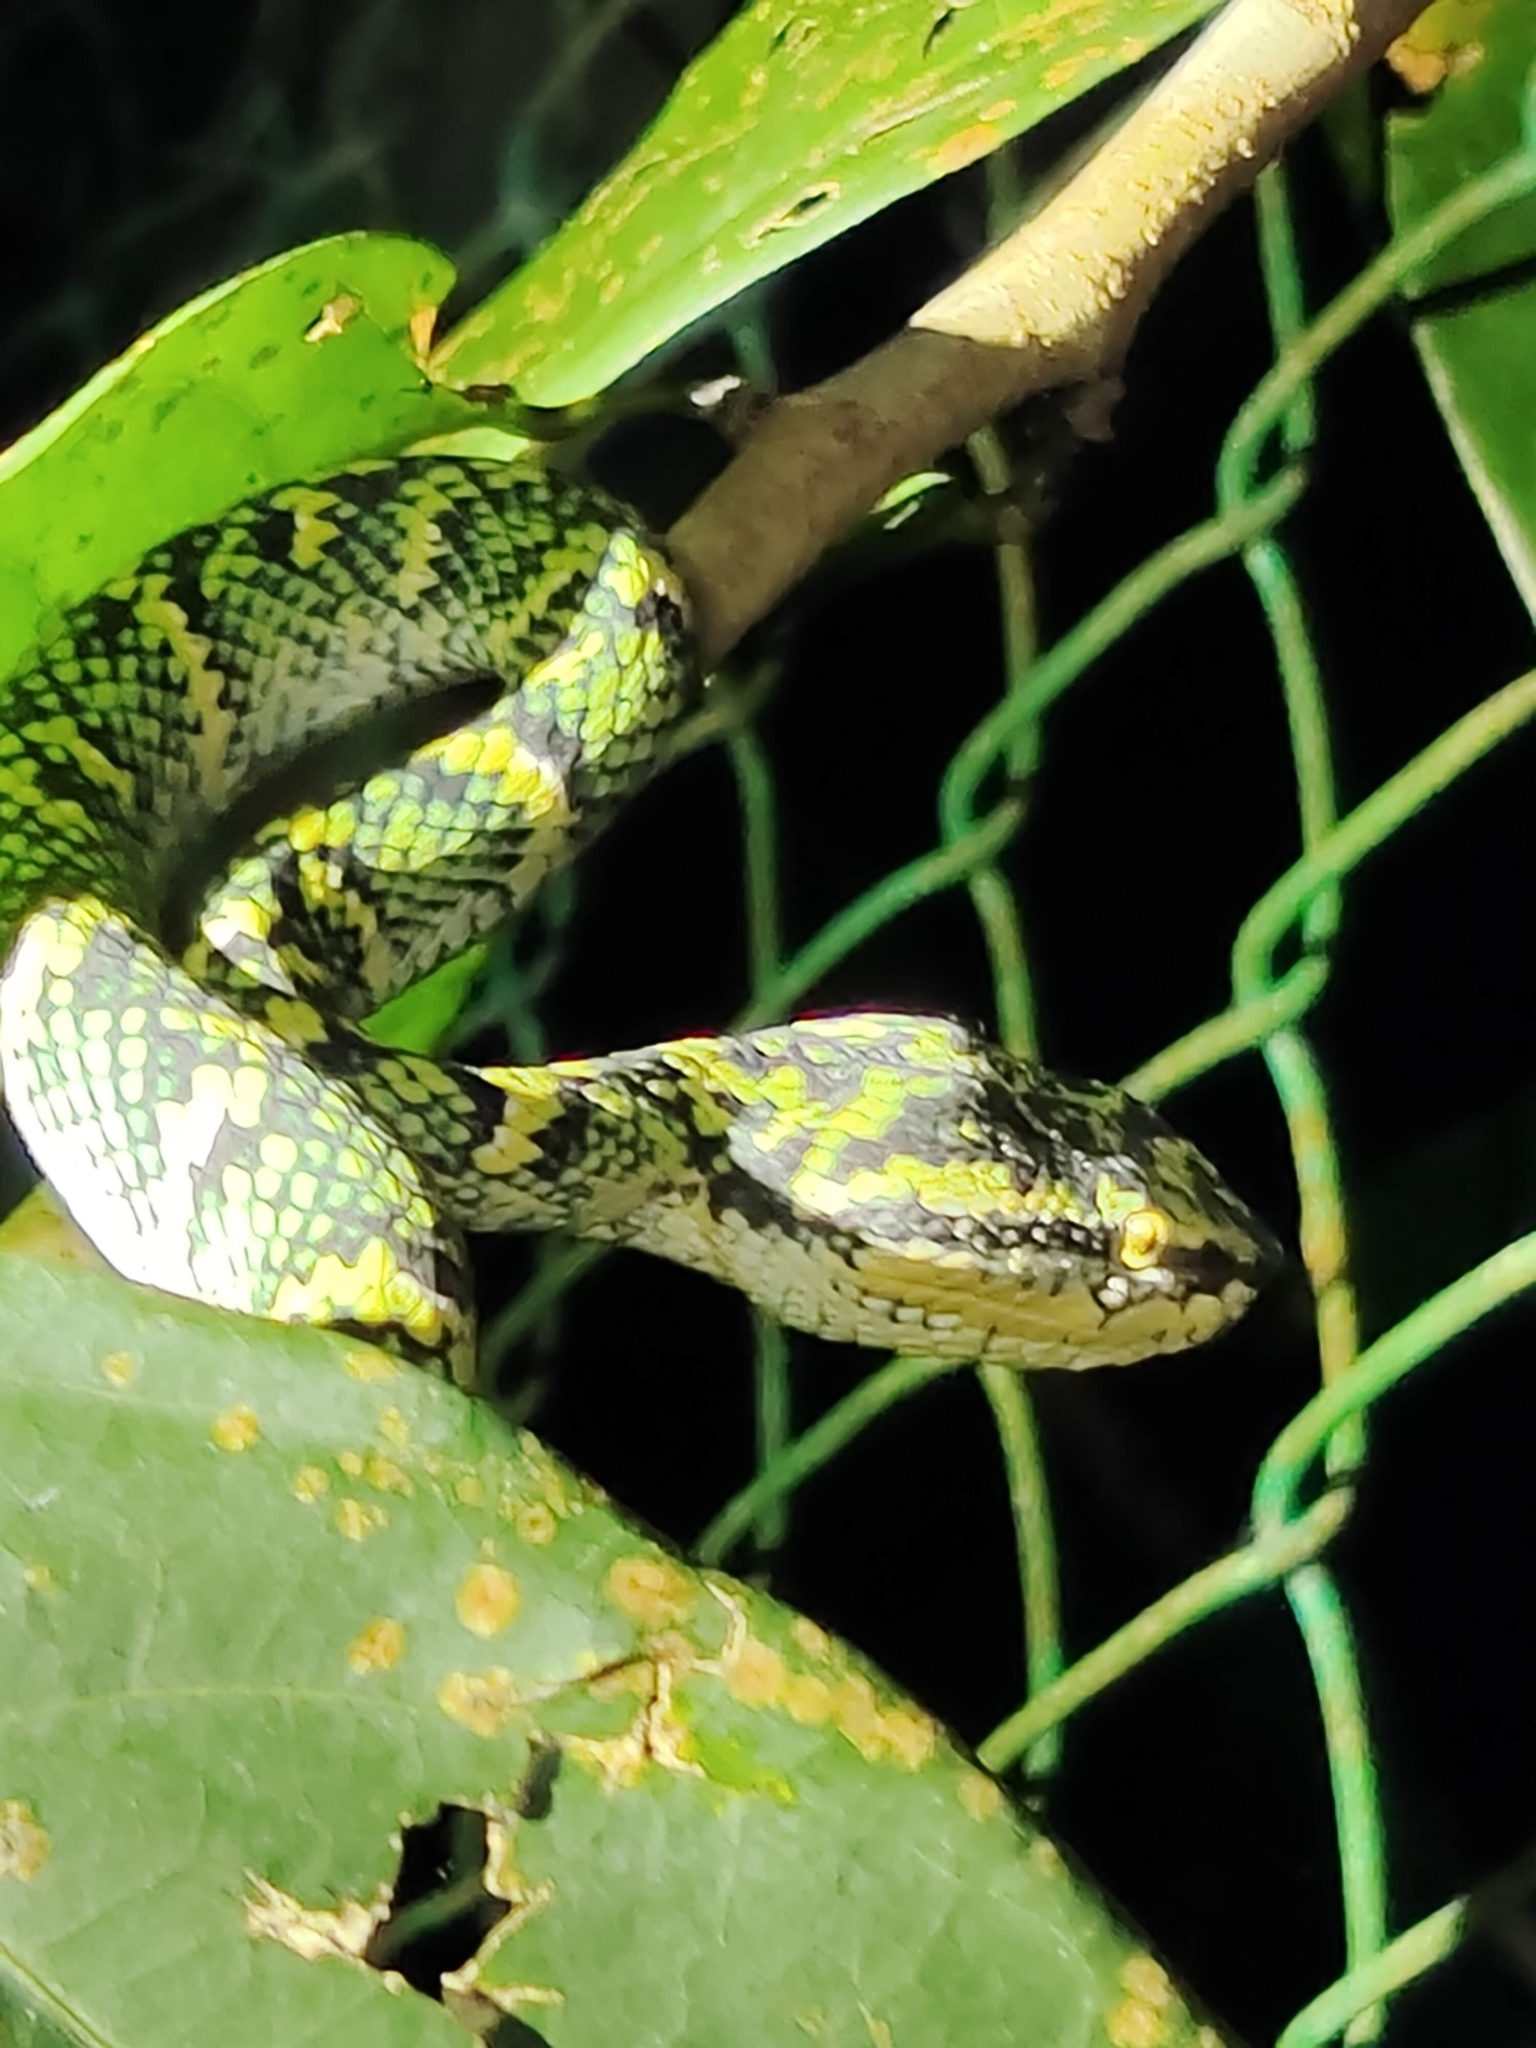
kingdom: Animalia
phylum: Chordata
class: Squamata
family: Viperidae
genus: Tropidolaemus
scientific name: Tropidolaemus wagleri
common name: Wagler's palm viper
